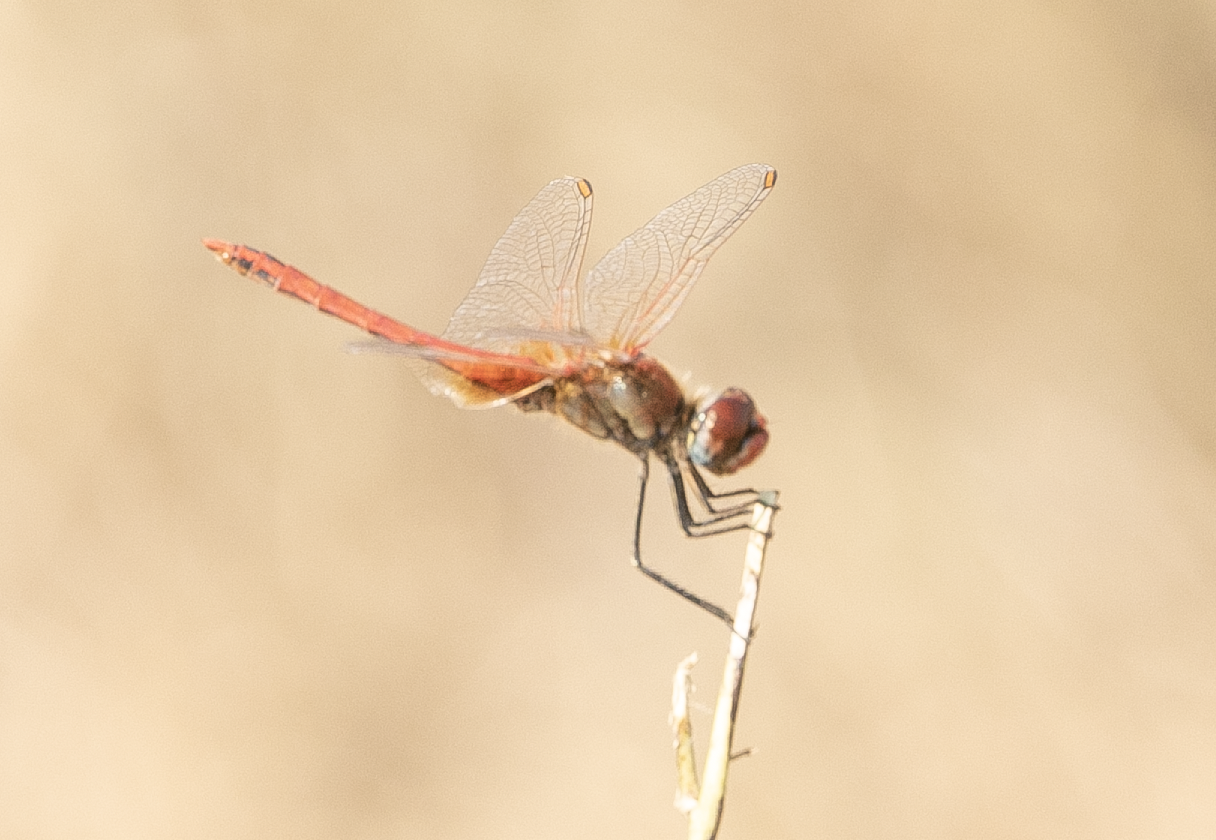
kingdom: Animalia
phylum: Arthropoda
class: Insecta
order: Odonata
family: Libellulidae
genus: Sympetrum
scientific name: Sympetrum fonscolombii
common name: Red-veined darter
